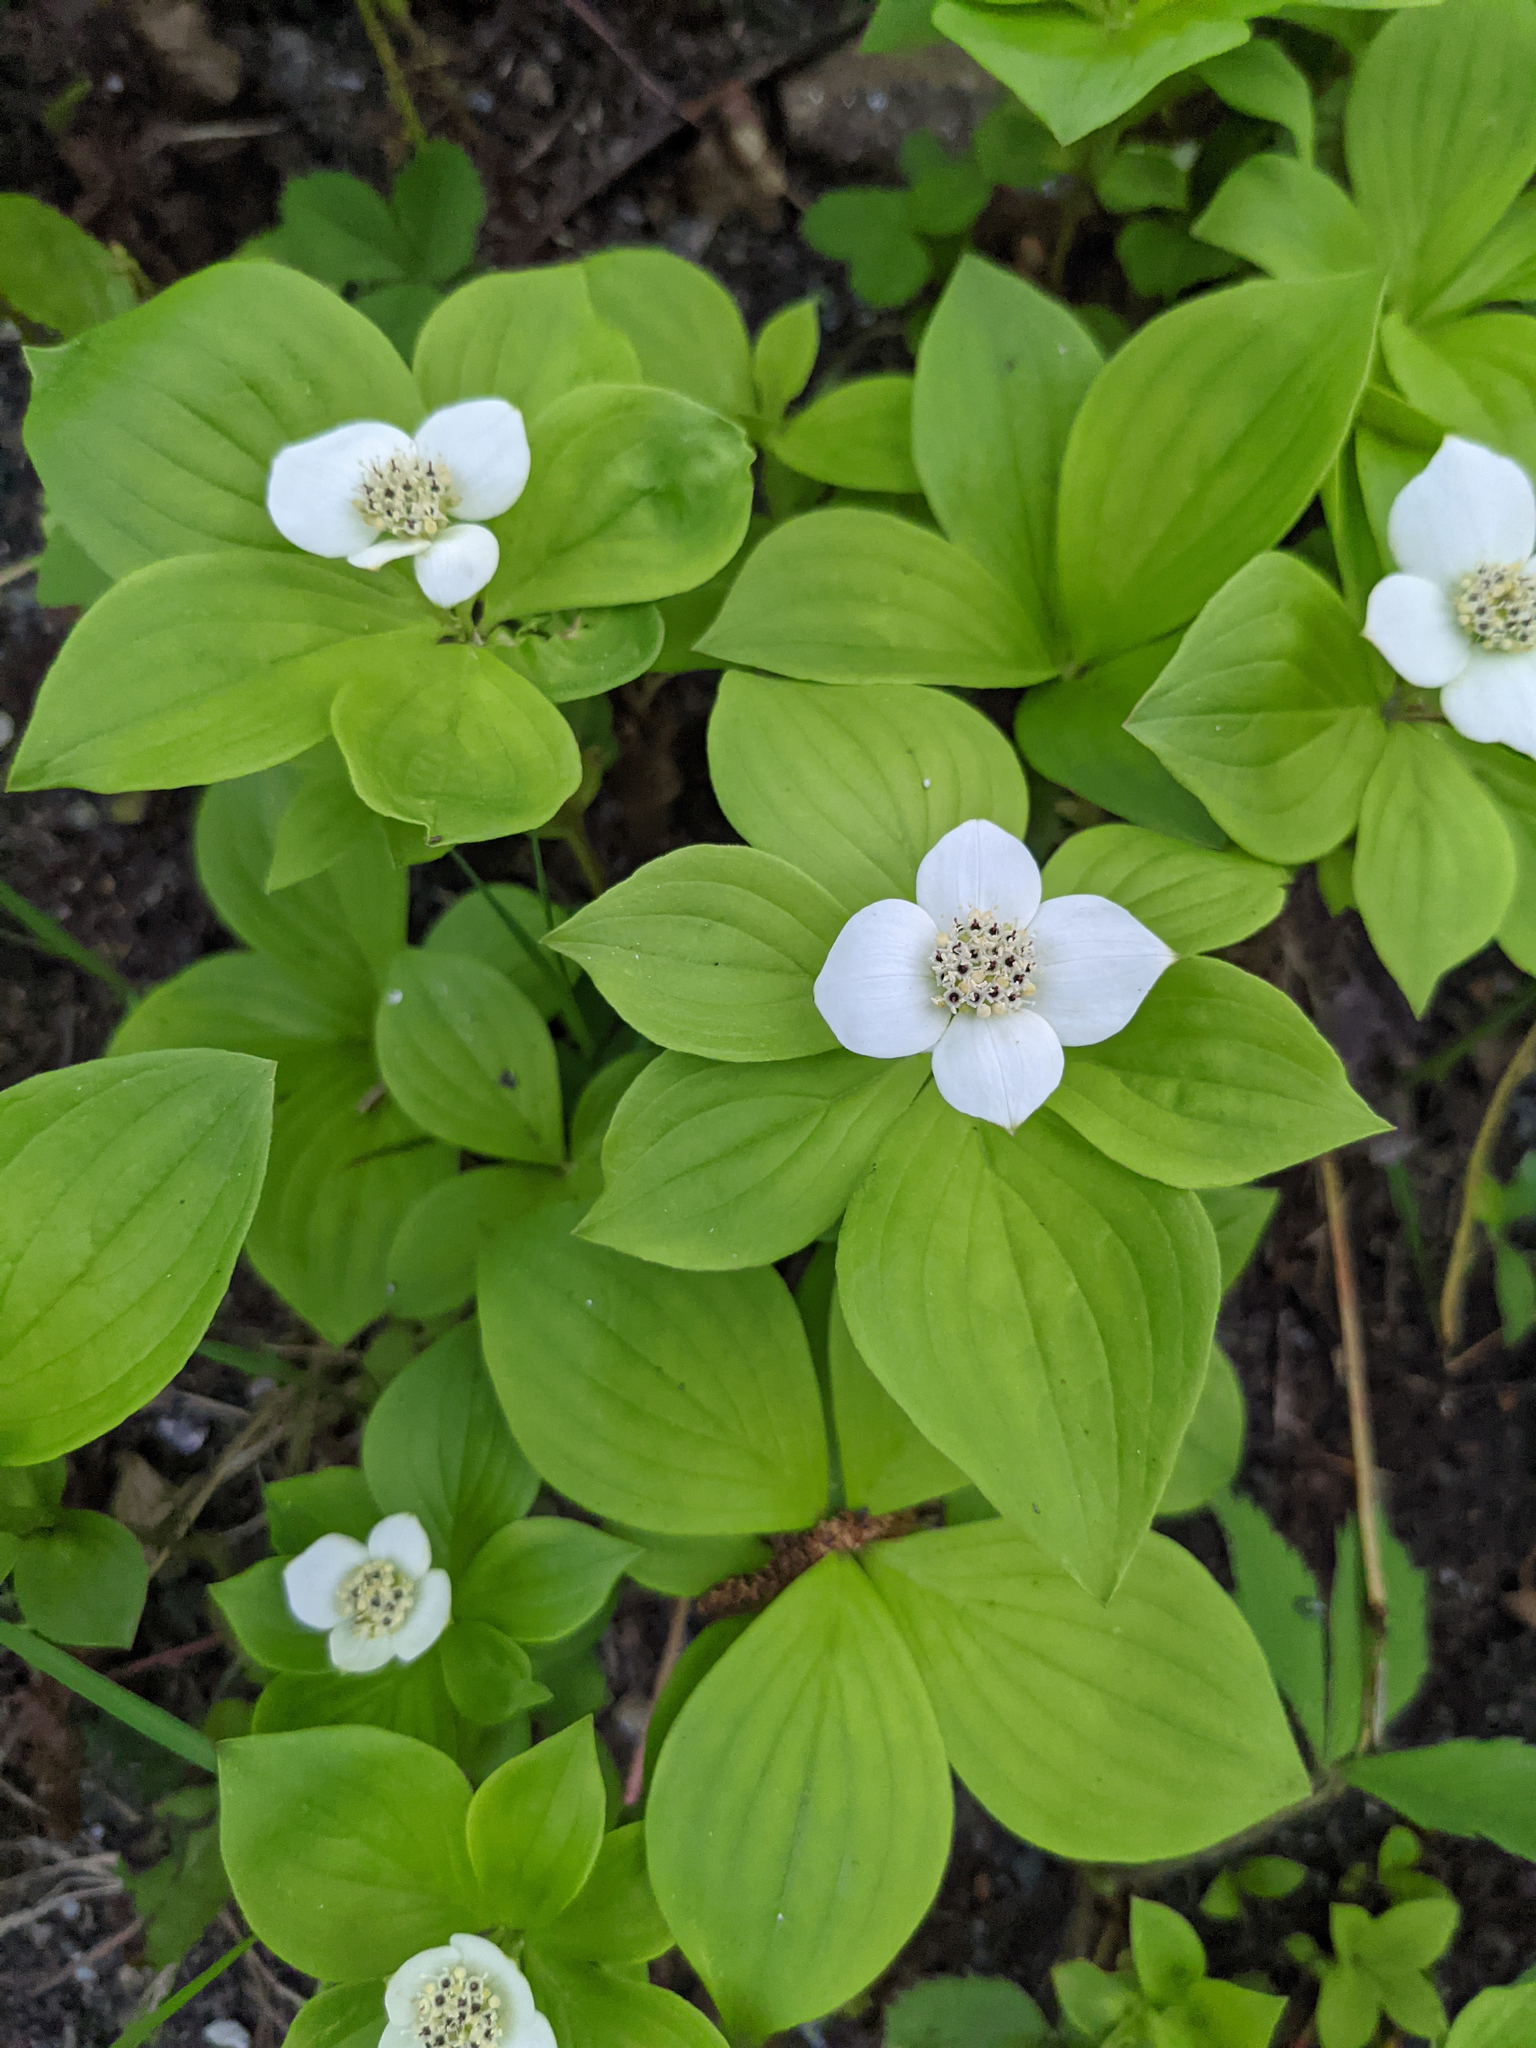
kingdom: Plantae
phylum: Tracheophyta
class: Magnoliopsida
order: Cornales
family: Cornaceae
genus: Cornus
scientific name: Cornus canadensis
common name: Creeping dogwood
